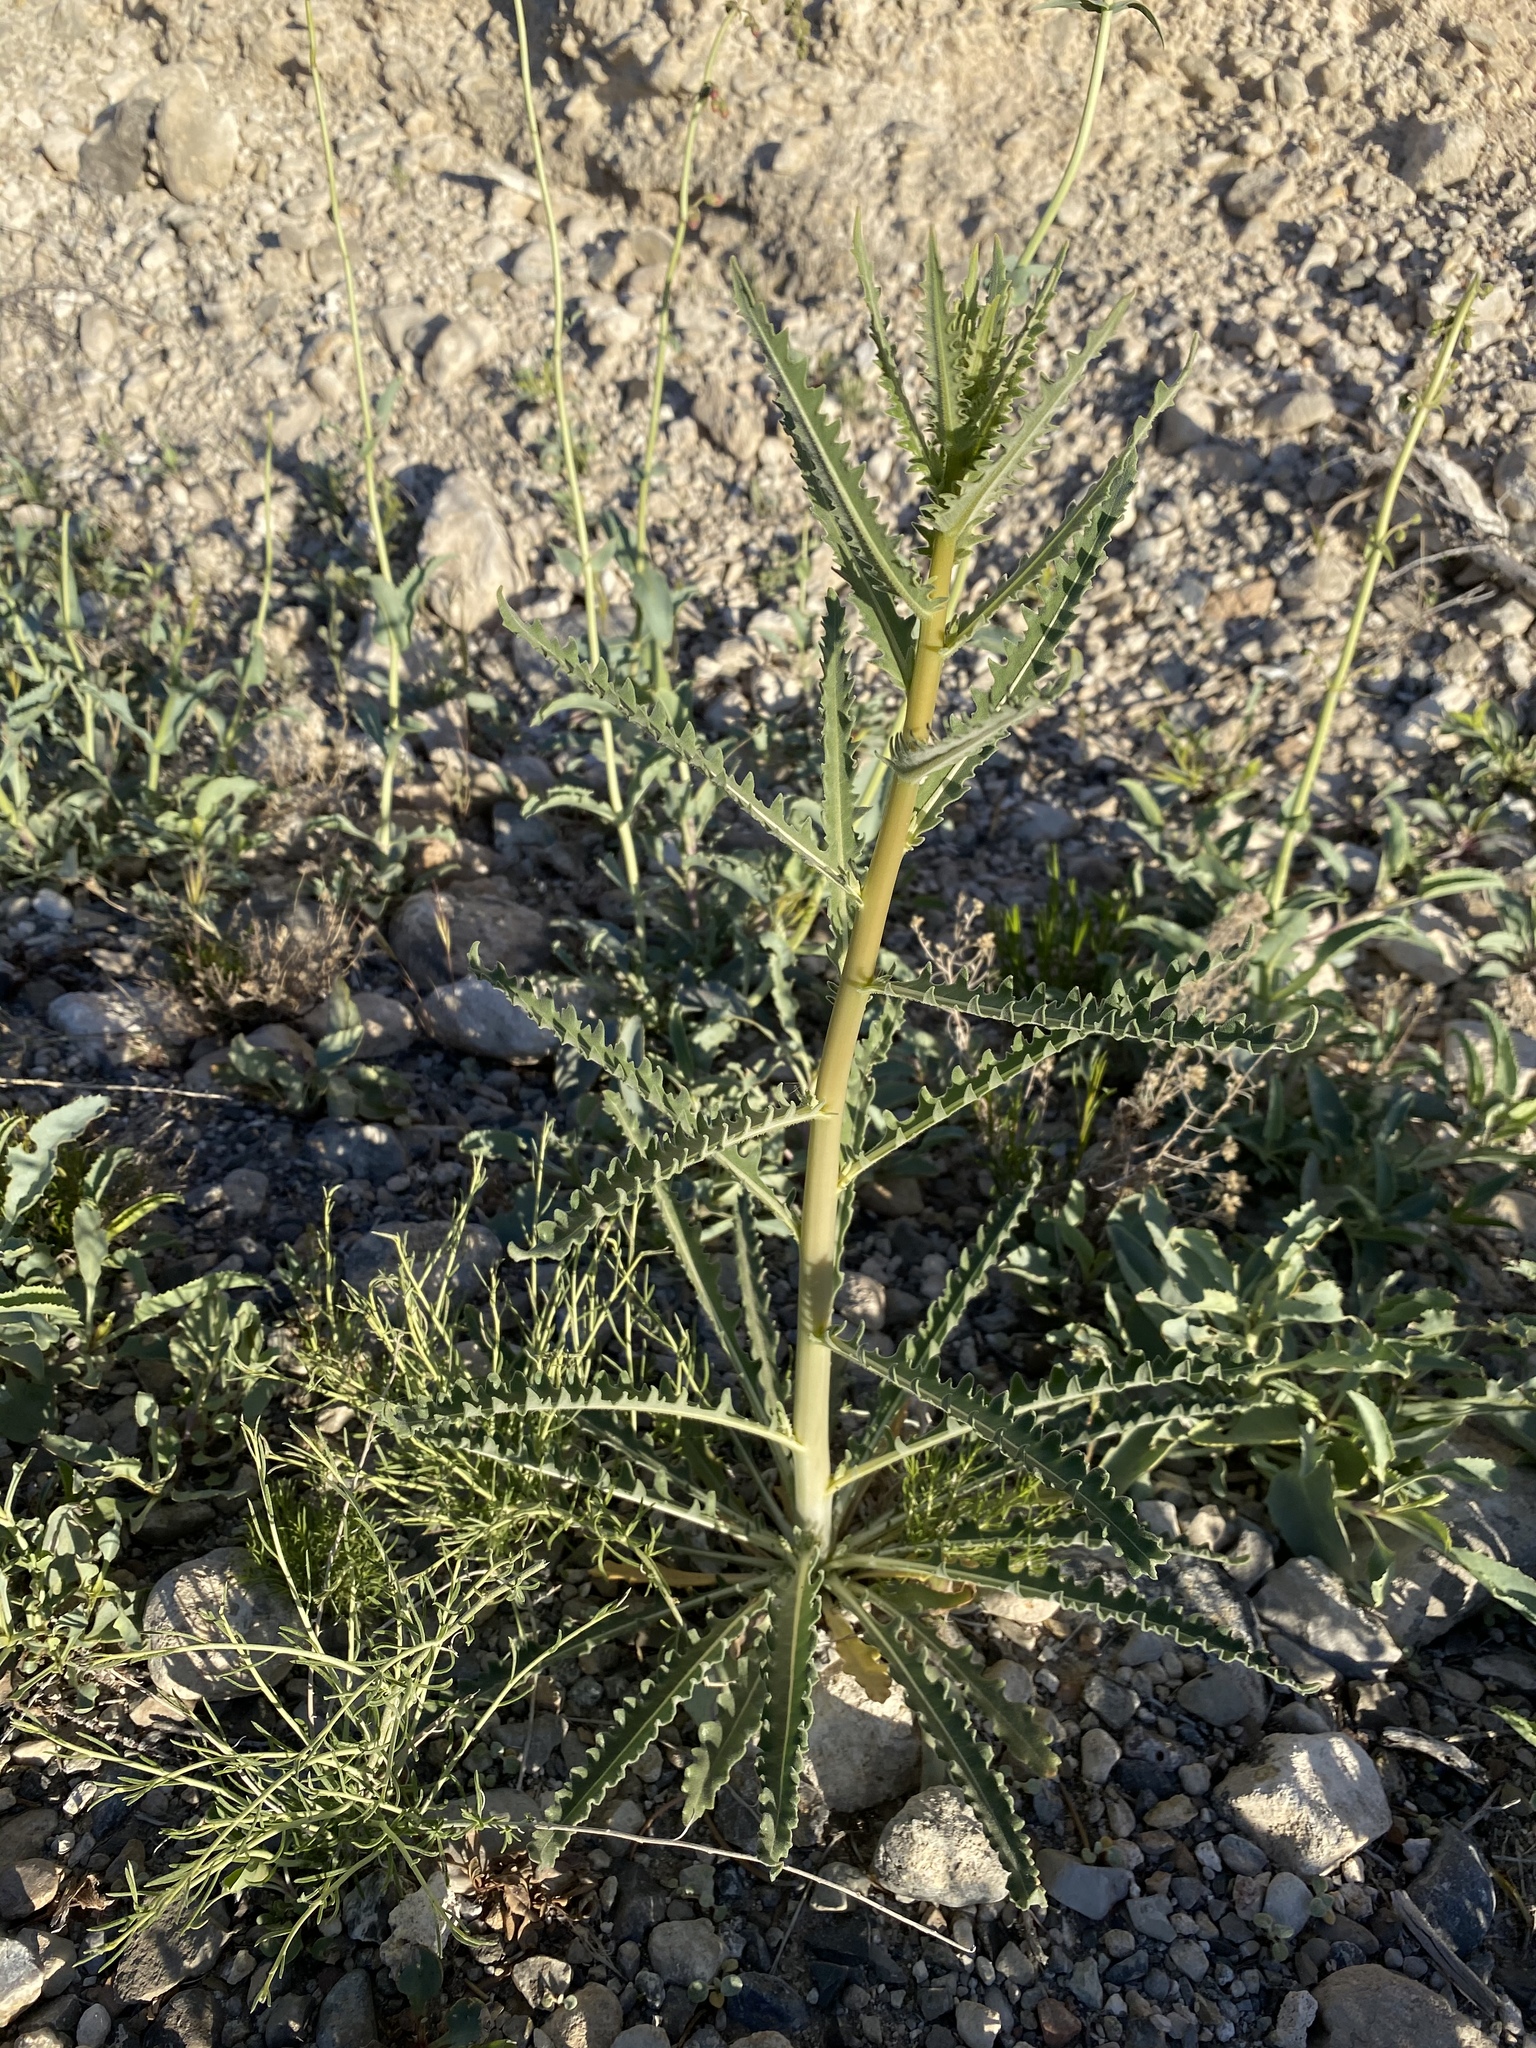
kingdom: Plantae
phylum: Tracheophyta
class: Magnoliopsida
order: Cornales
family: Loasaceae
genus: Mentzelia
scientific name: Mentzelia laevicaulis
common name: Smooth-stem blazingstar
